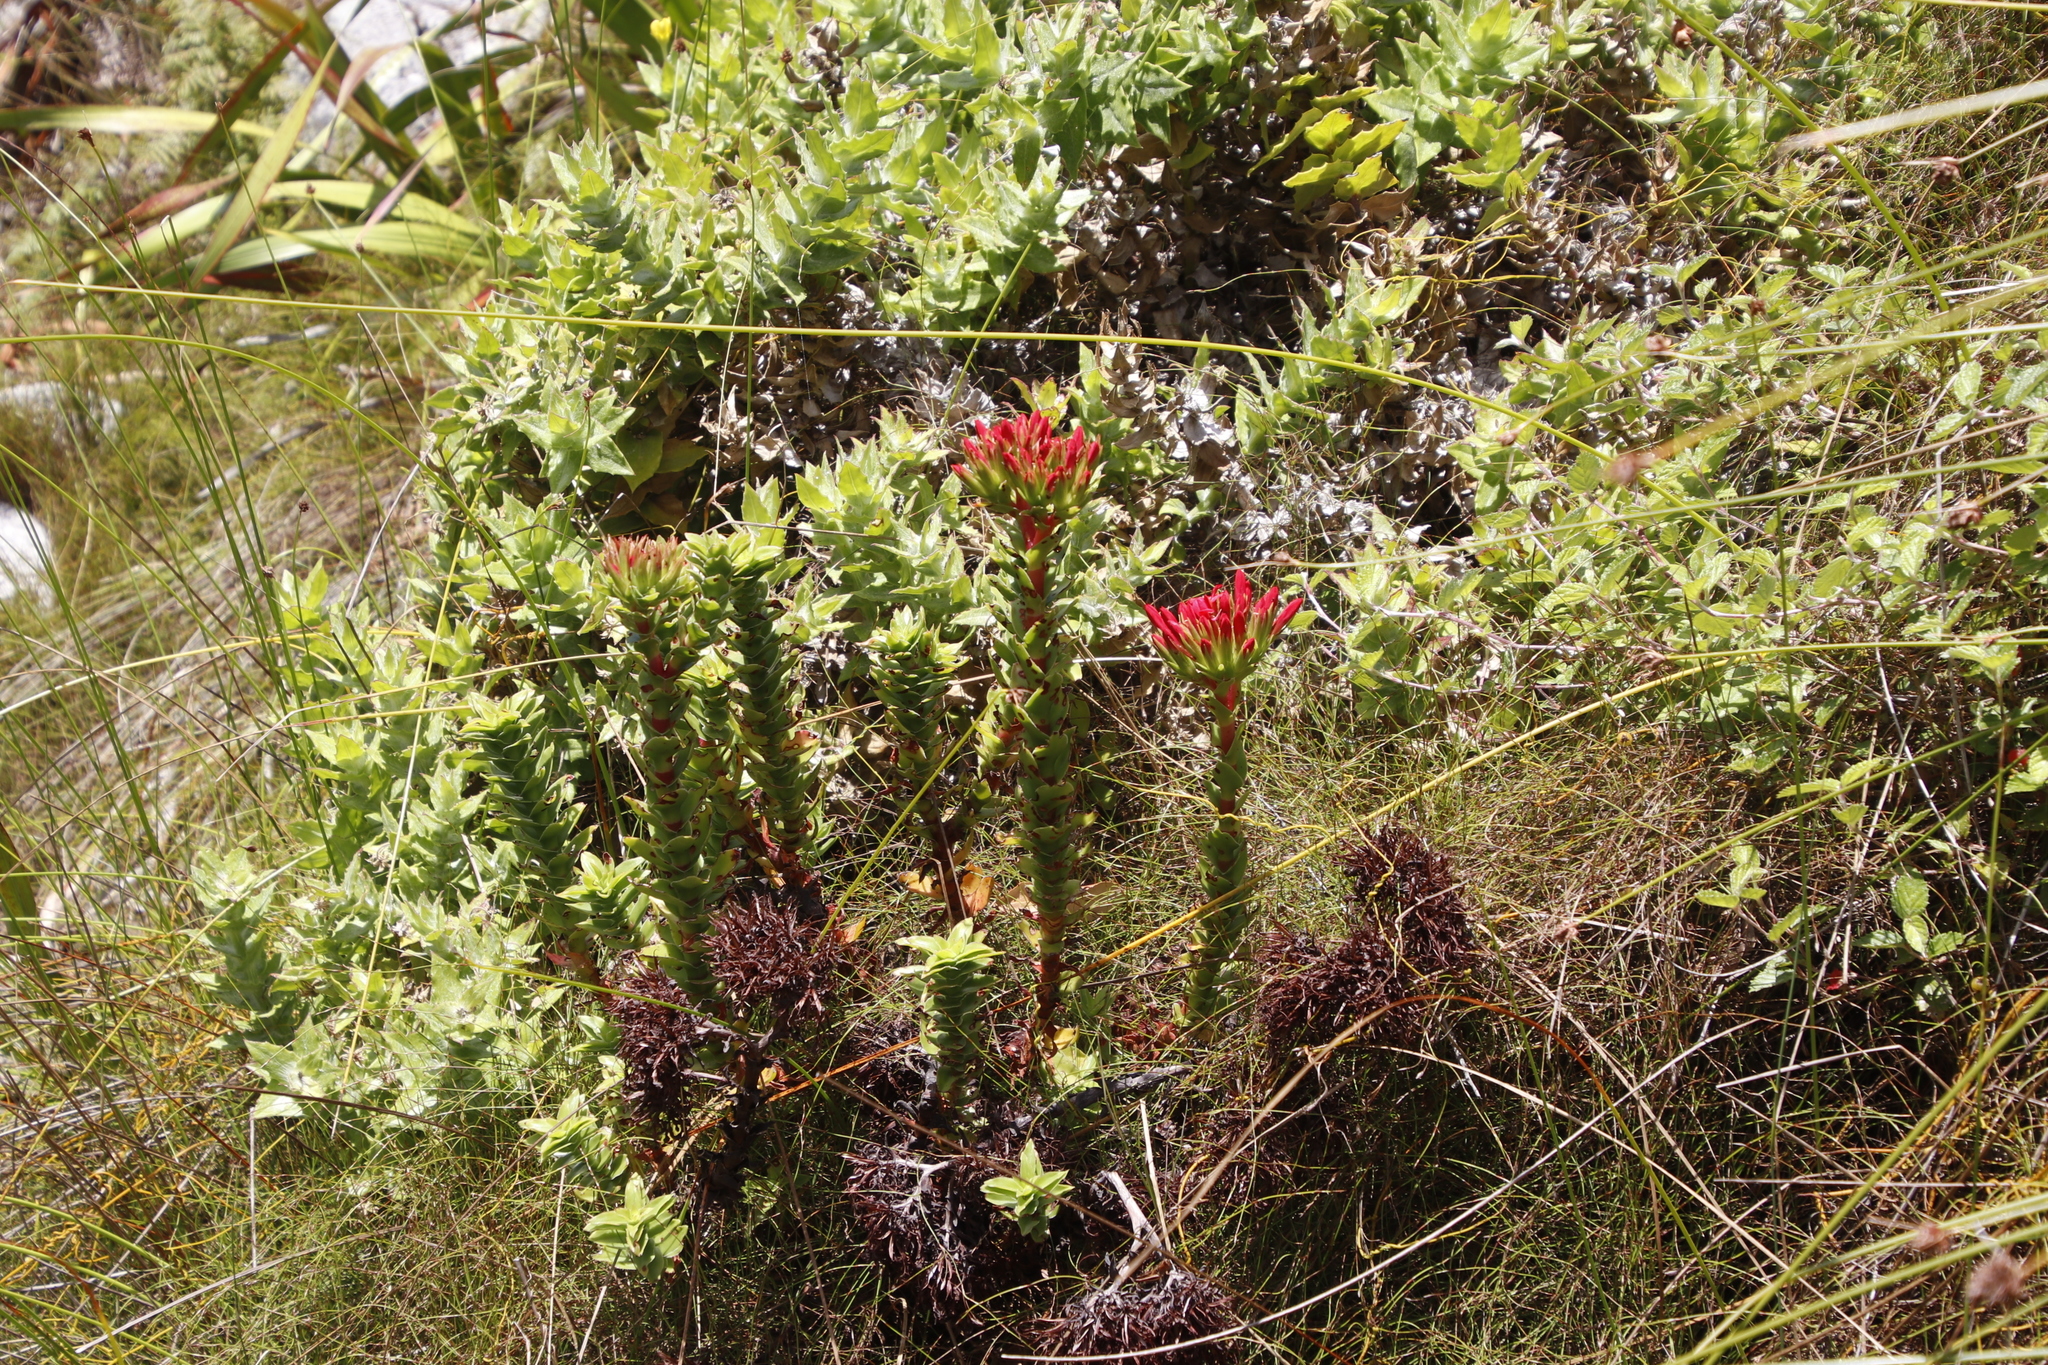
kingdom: Plantae
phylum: Tracheophyta
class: Magnoliopsida
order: Saxifragales
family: Crassulaceae
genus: Crassula
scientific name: Crassula coccinea
